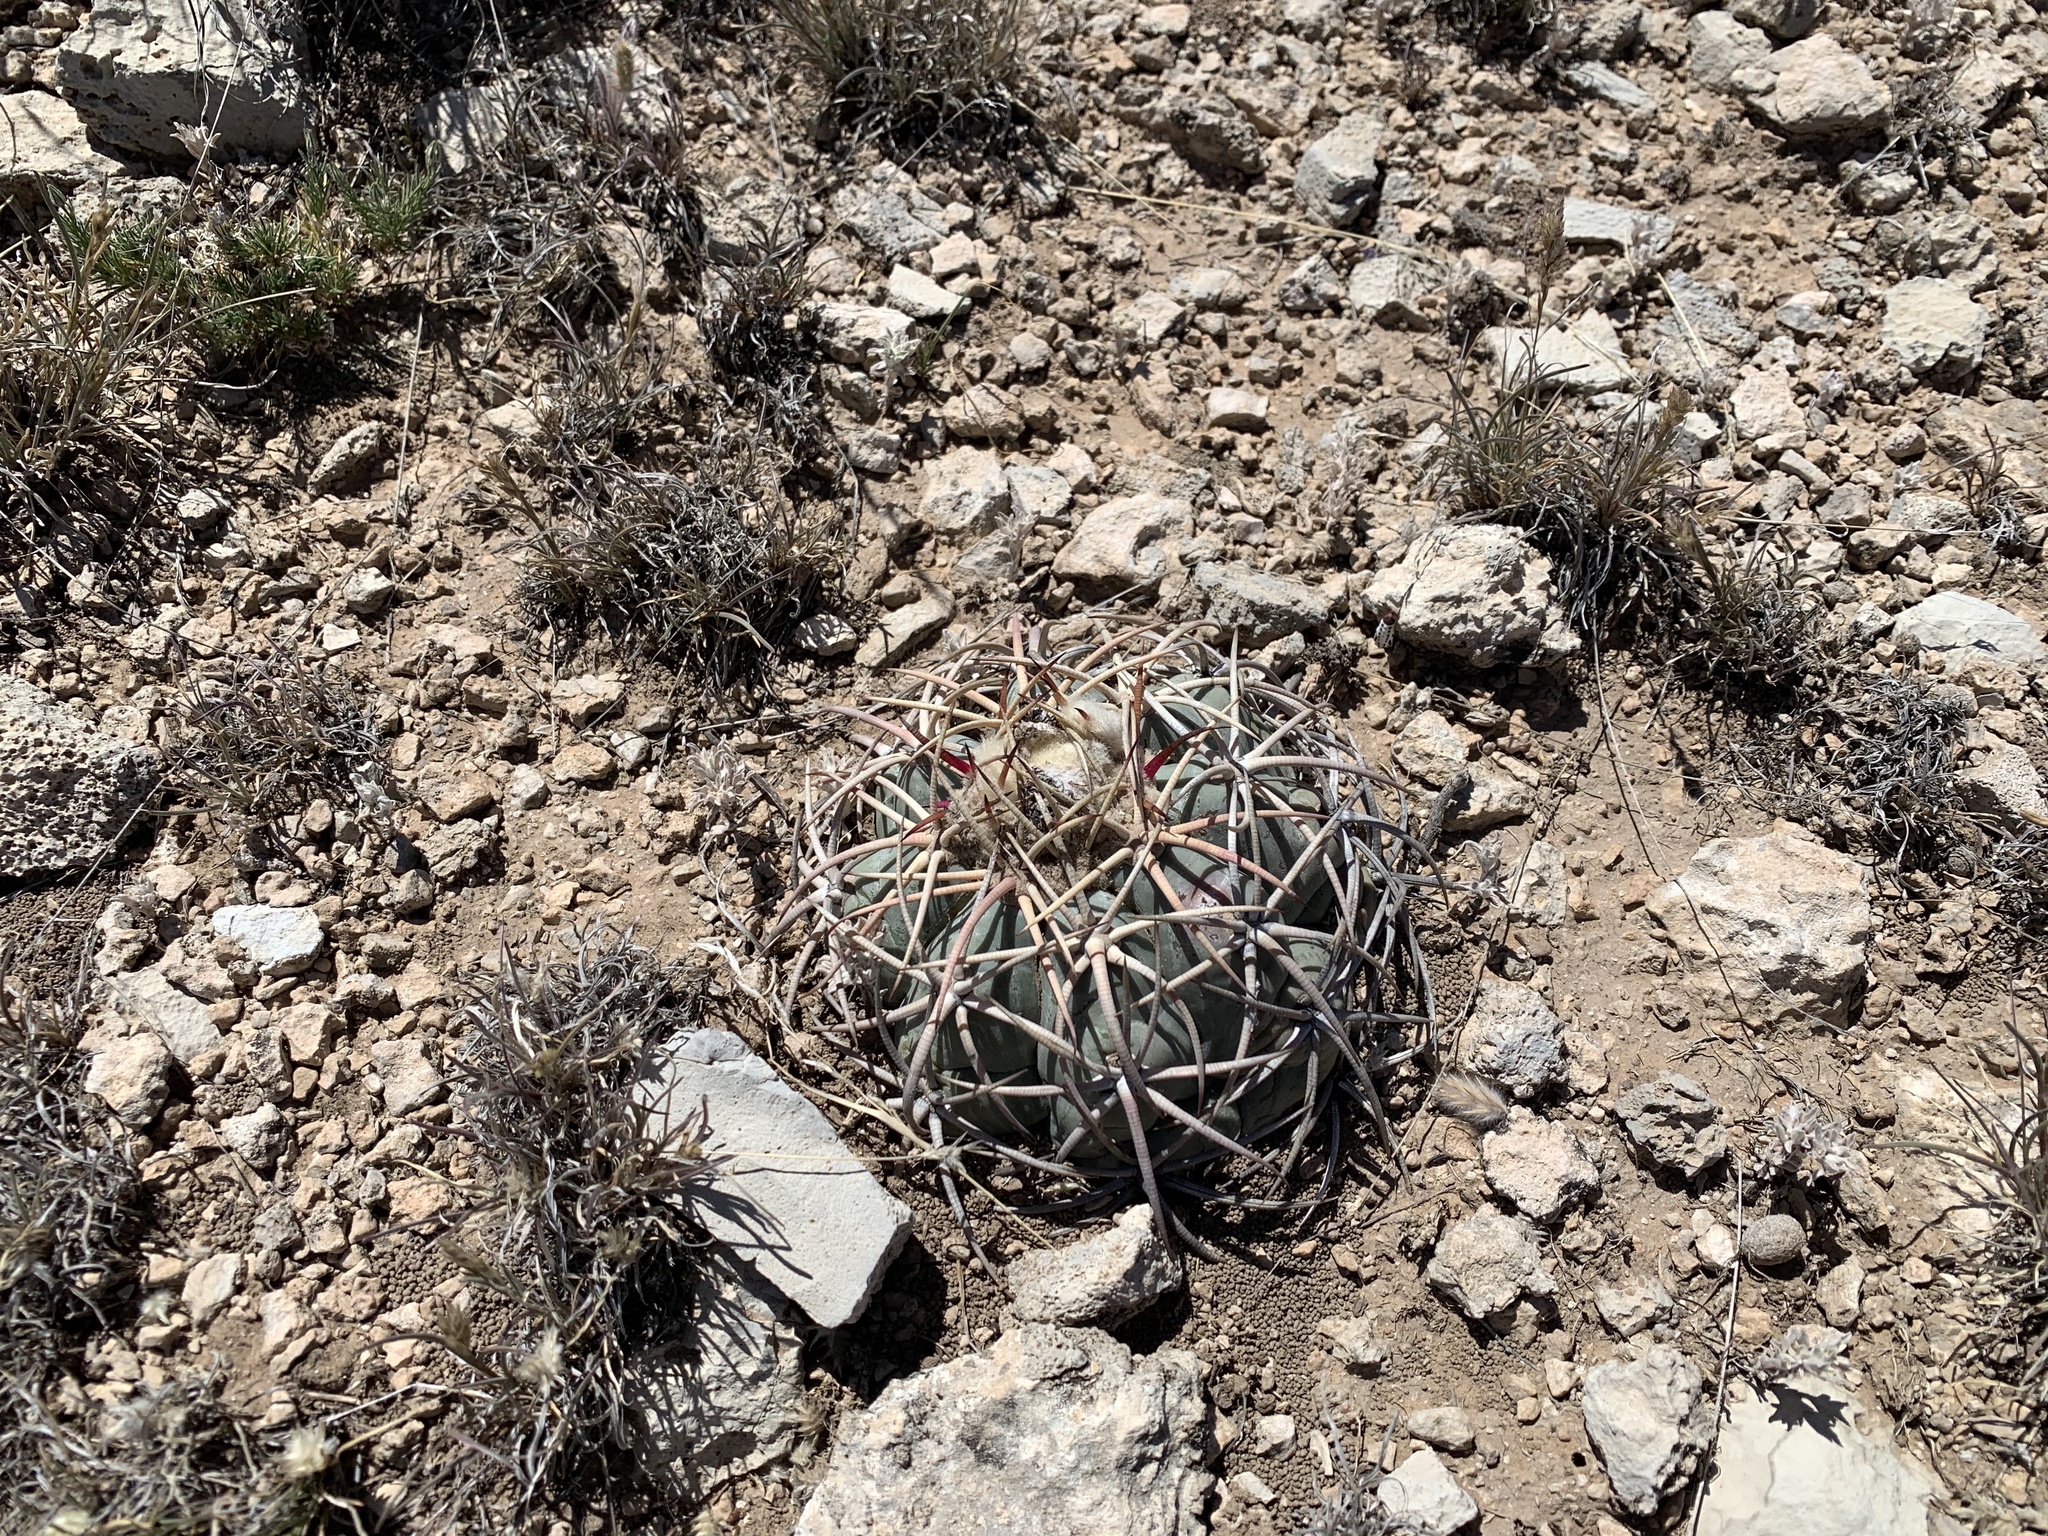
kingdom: Plantae
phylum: Tracheophyta
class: Magnoliopsida
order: Caryophyllales
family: Cactaceae
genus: Echinocactus
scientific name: Echinocactus horizonthalonius
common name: Devilshead
